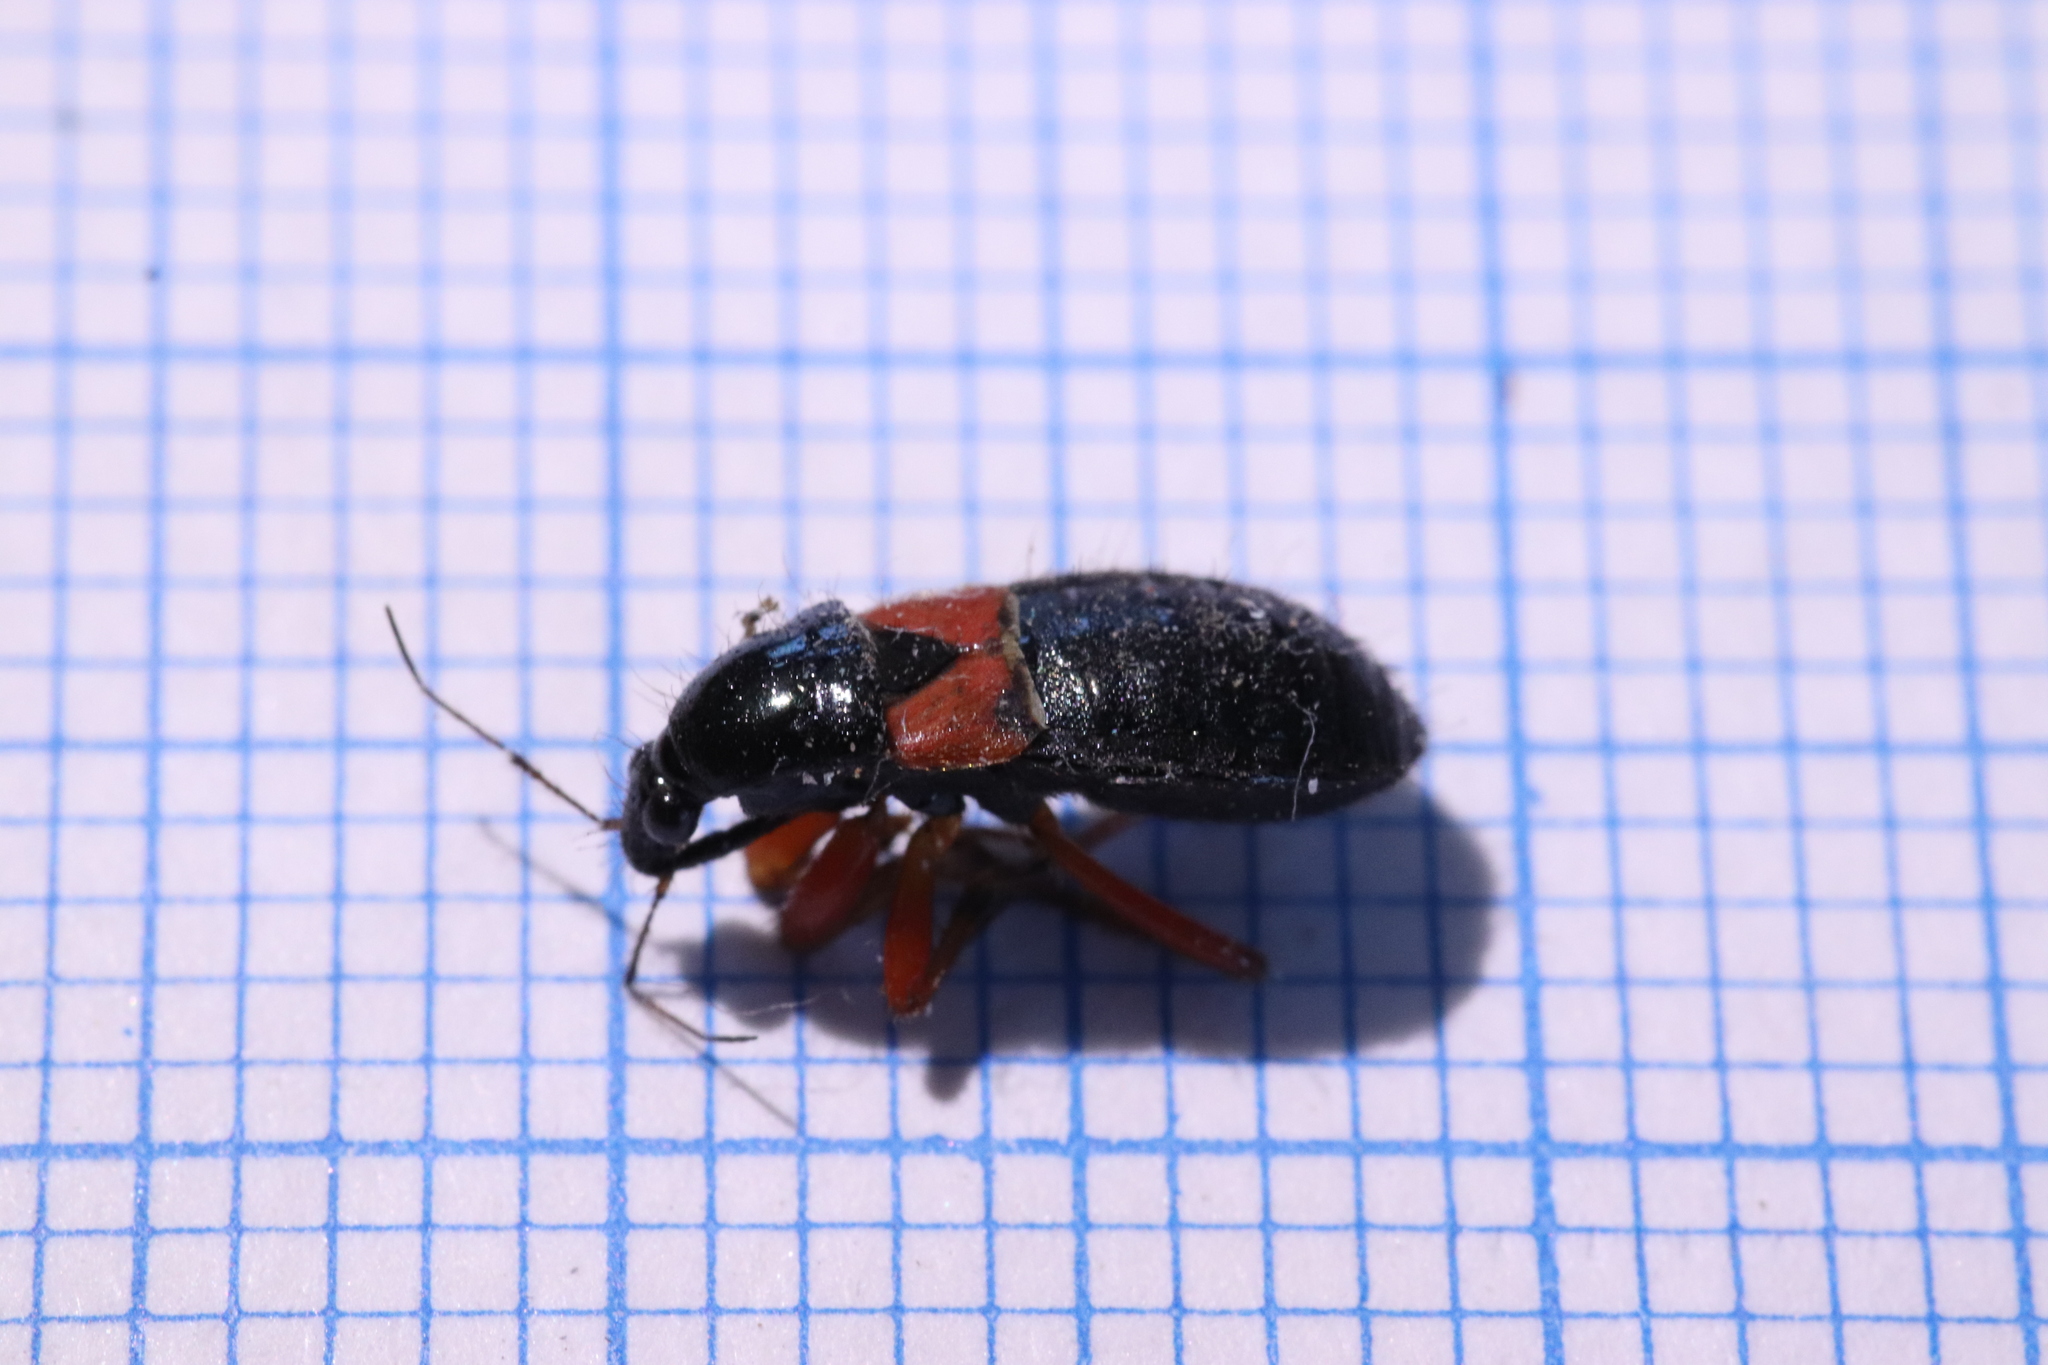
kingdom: Animalia
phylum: Arthropoda
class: Insecta
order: Hemiptera
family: Nabidae
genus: Prostemma
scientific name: Prostemma guttula
